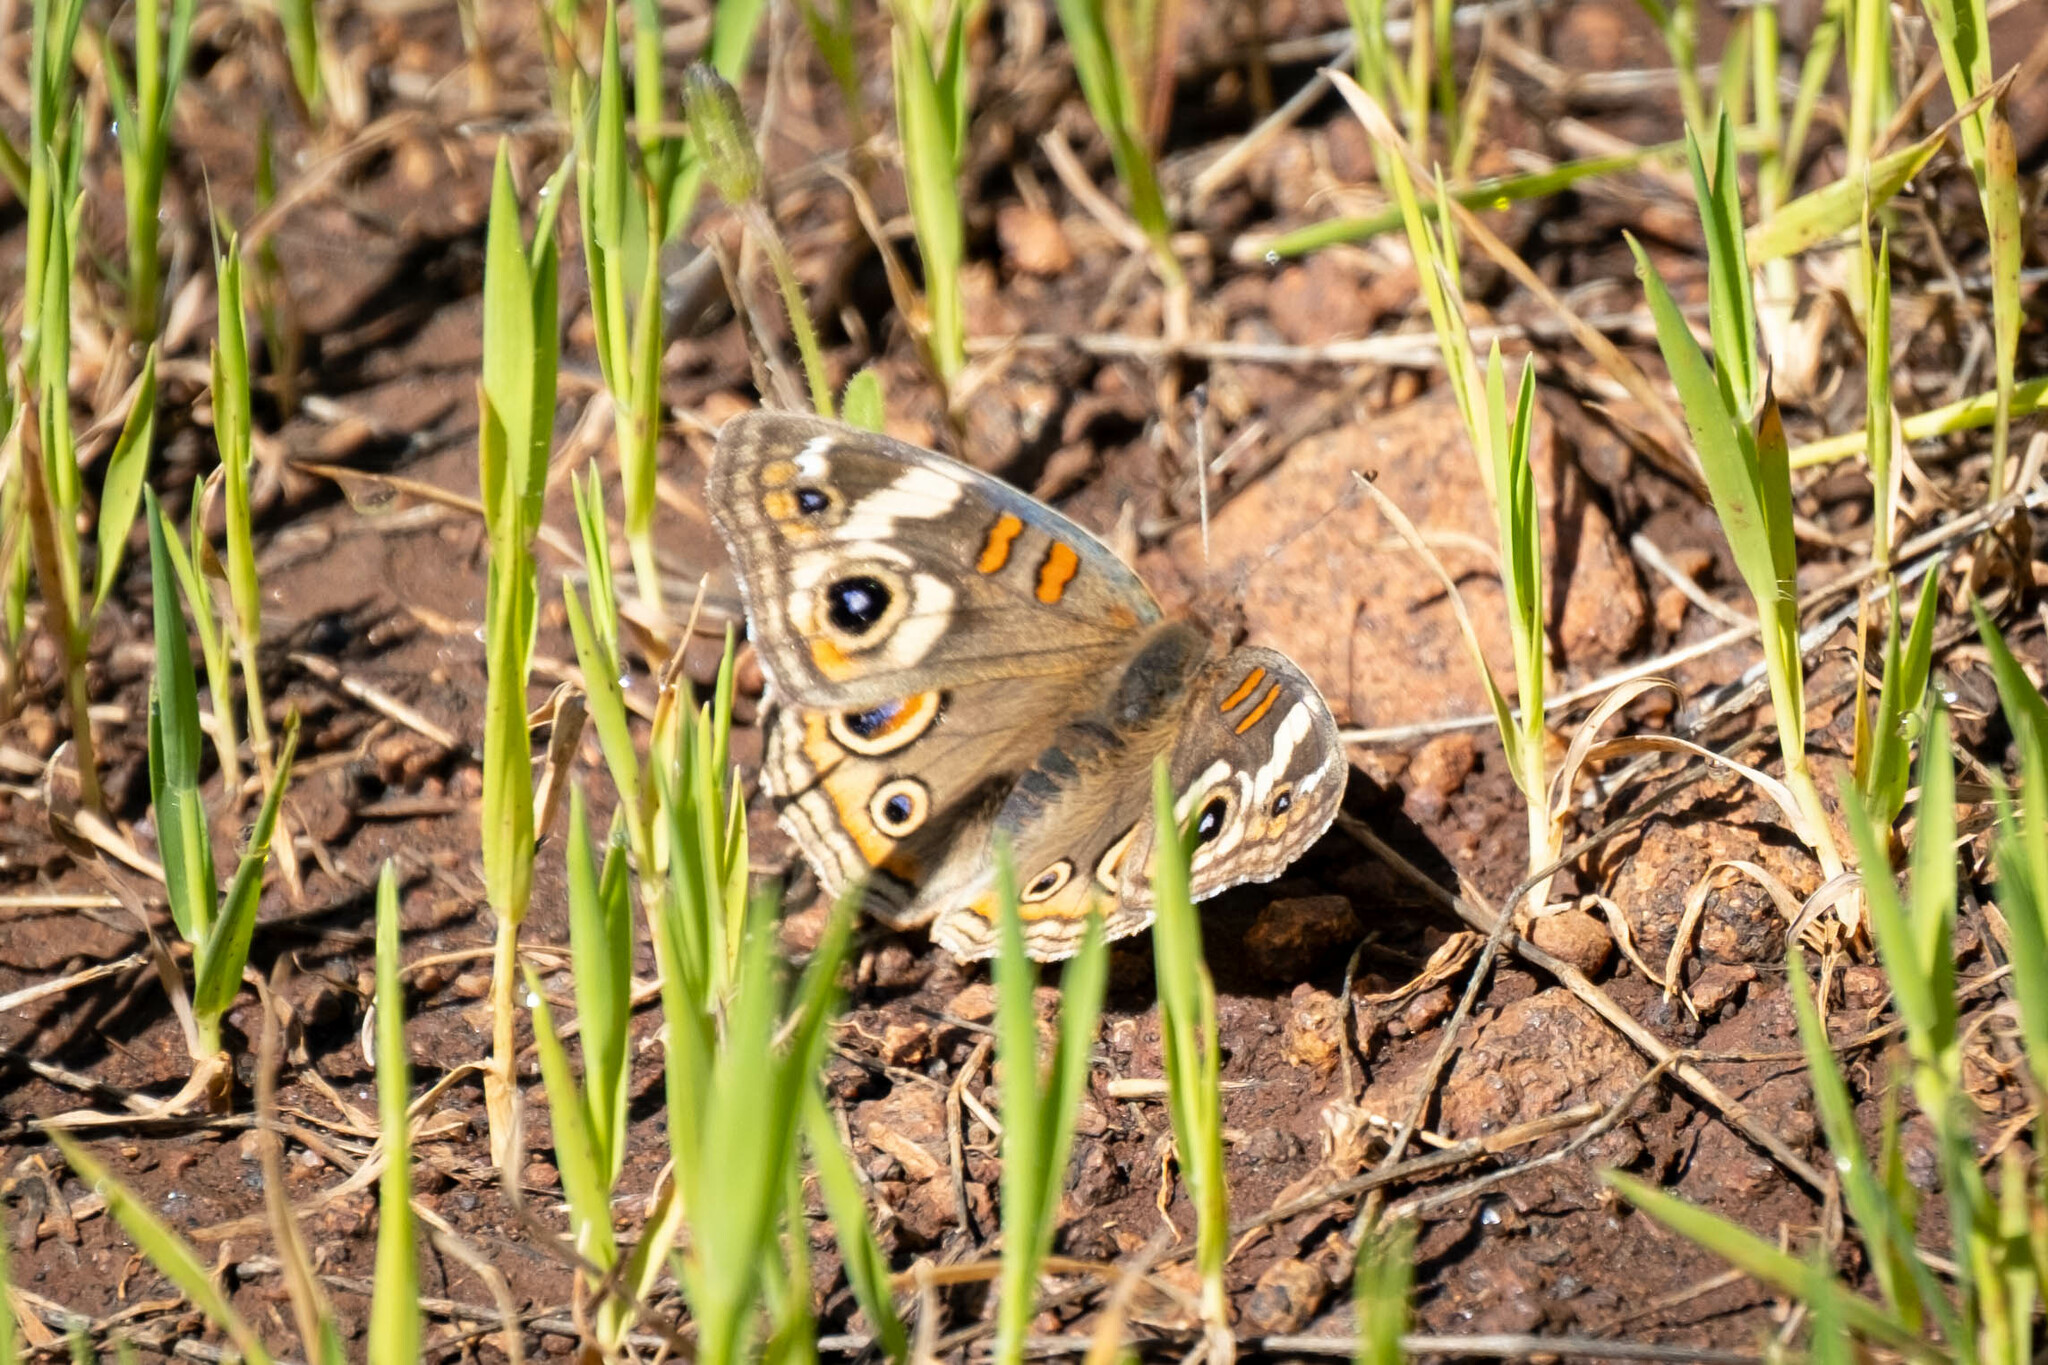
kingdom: Animalia
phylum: Arthropoda
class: Insecta
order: Lepidoptera
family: Nymphalidae
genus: Junonia
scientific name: Junonia grisea
